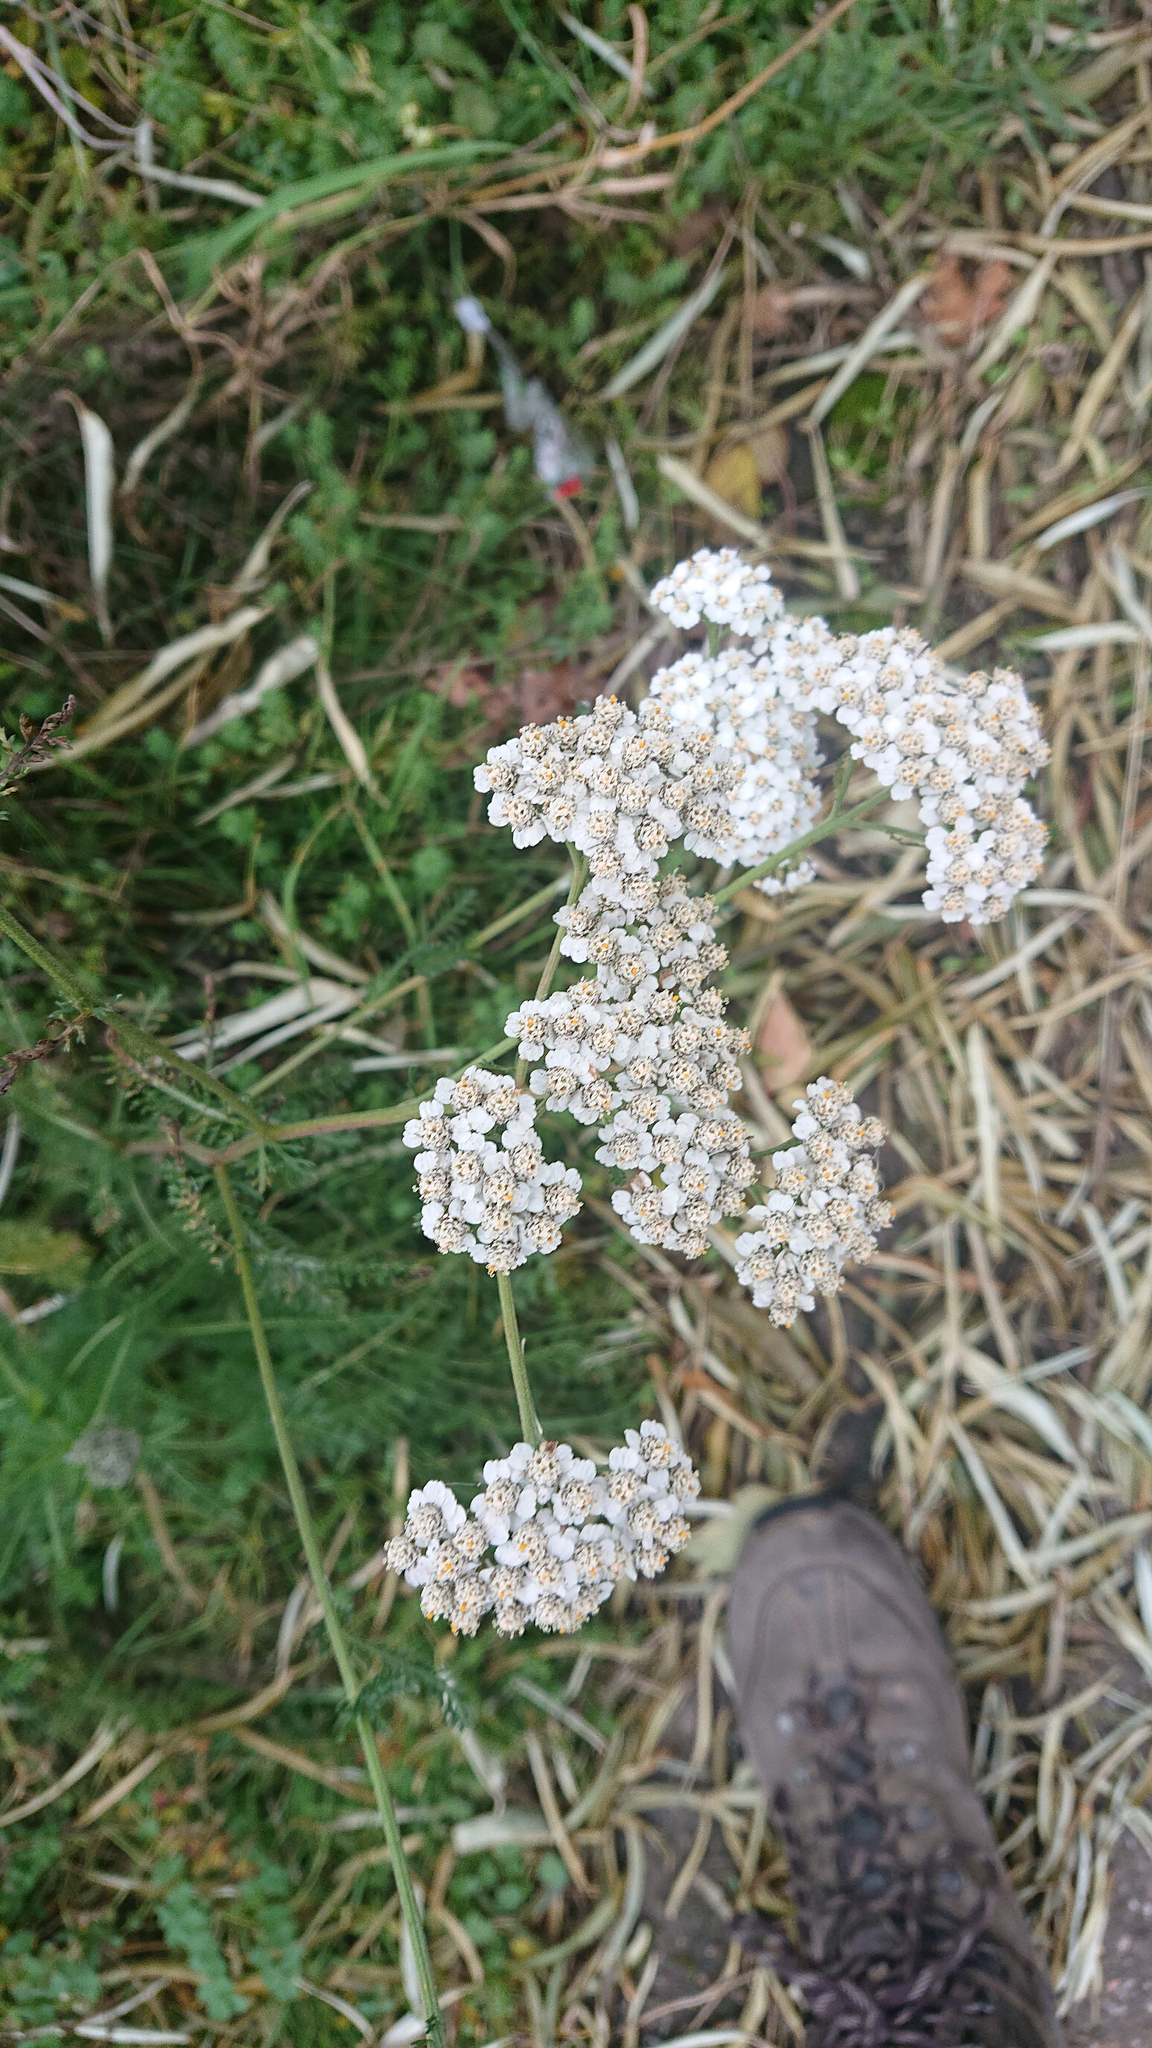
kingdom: Plantae
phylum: Tracheophyta
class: Magnoliopsida
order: Asterales
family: Asteraceae
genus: Achillea
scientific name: Achillea millefolium
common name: Yarrow
